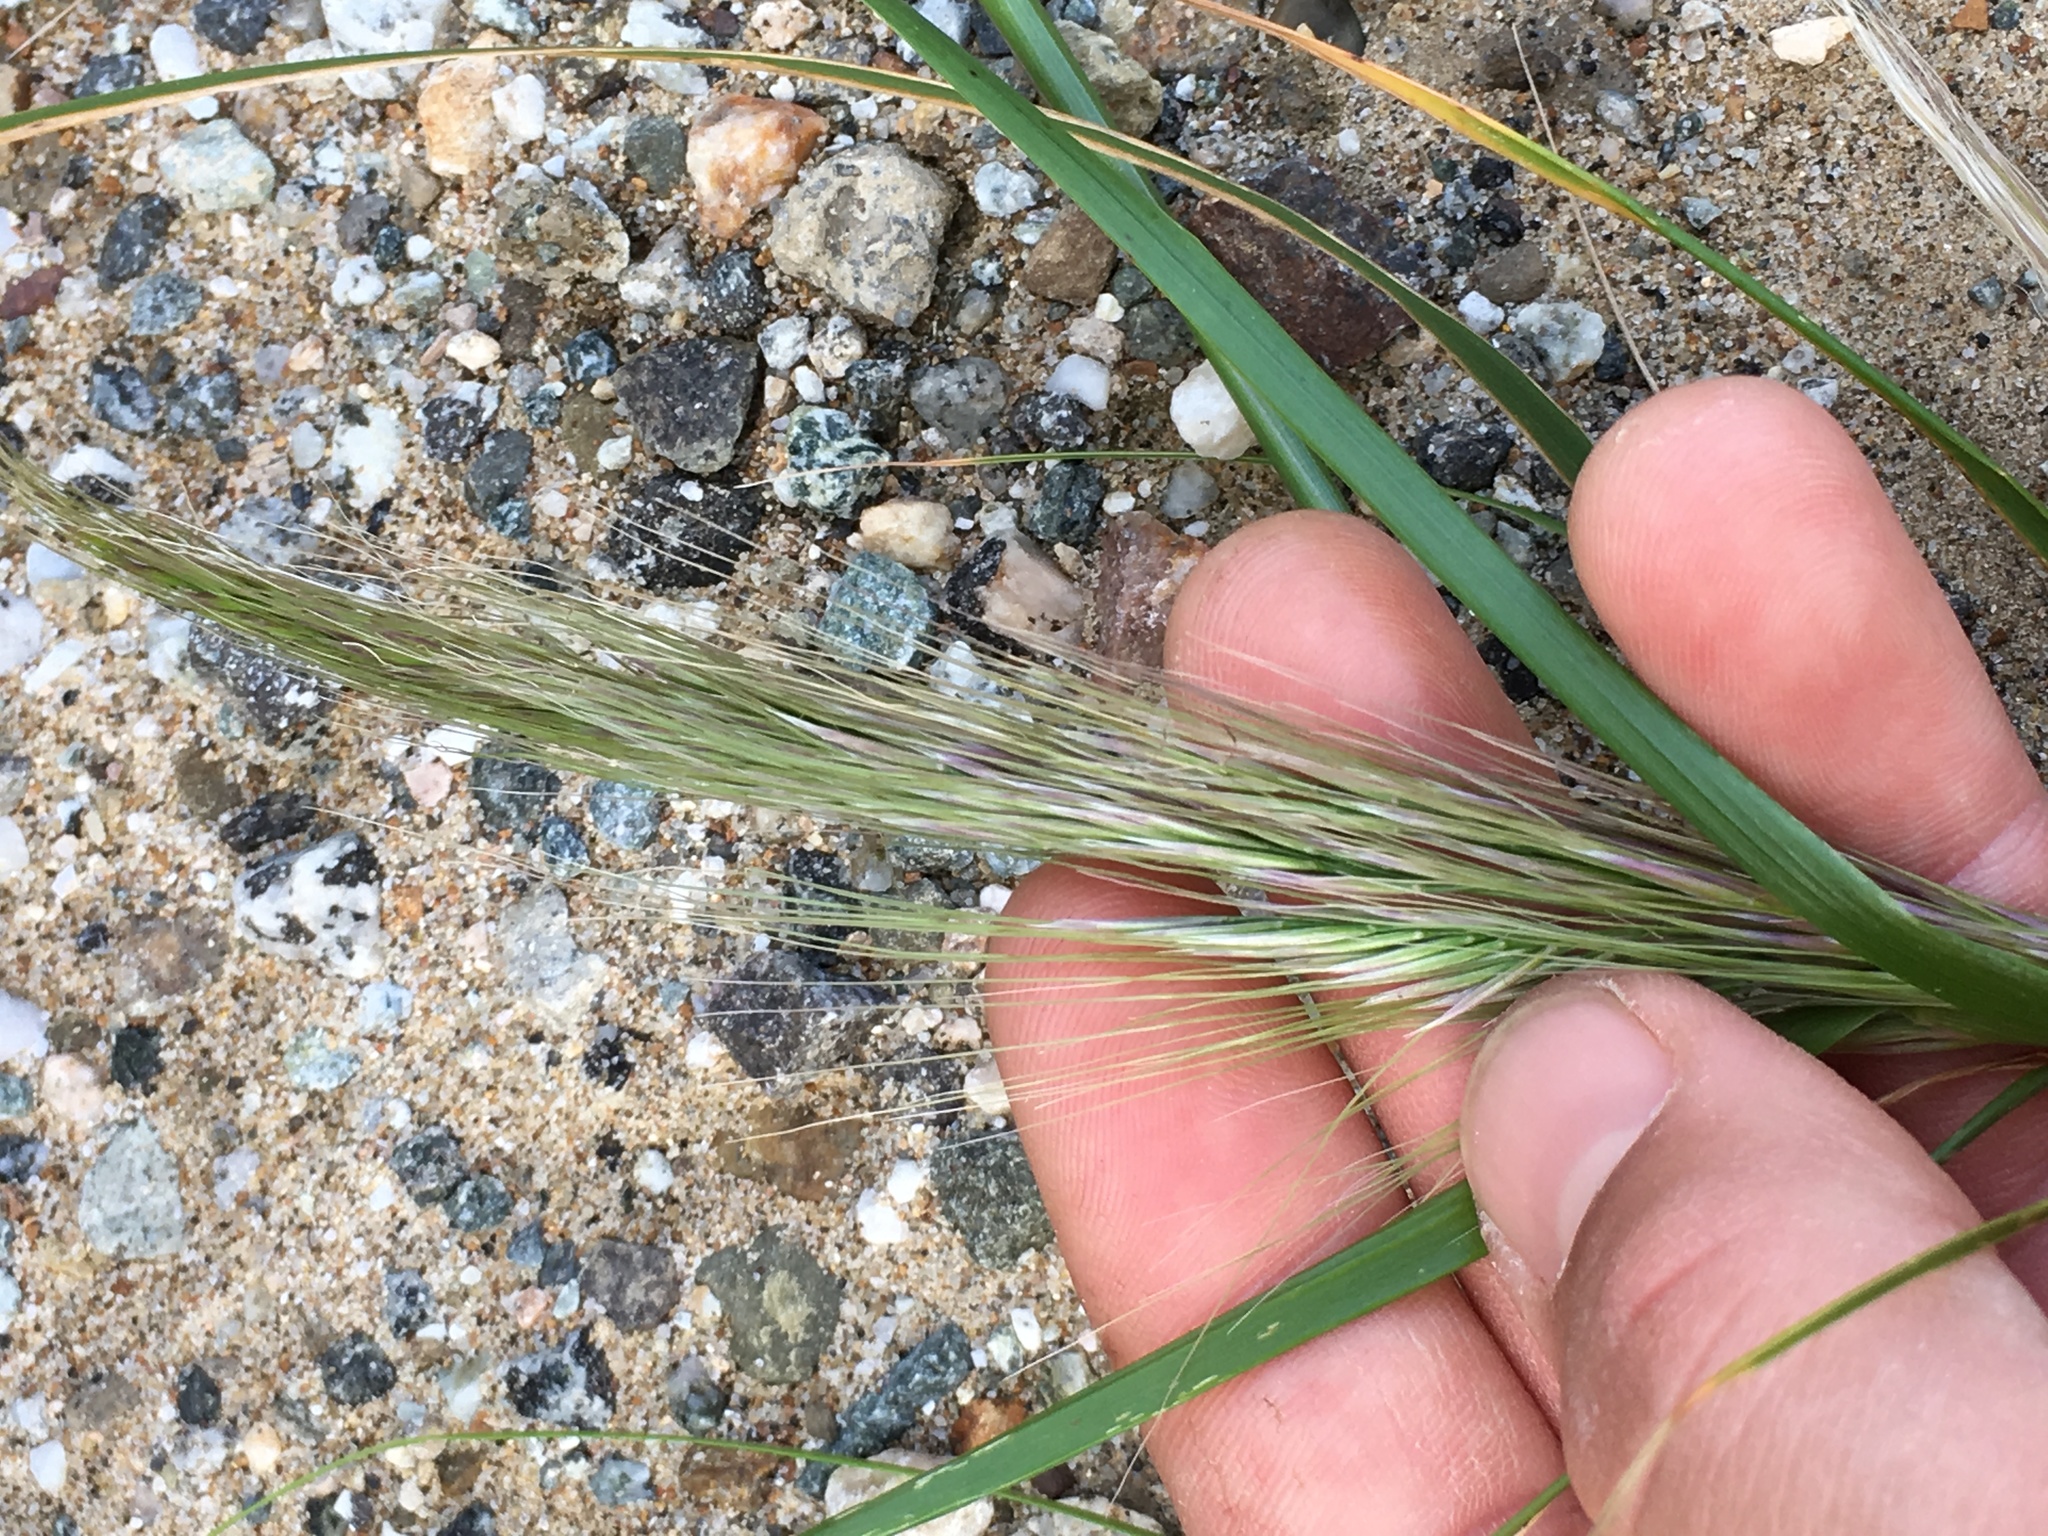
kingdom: Plantae
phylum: Tracheophyta
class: Liliopsida
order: Poales
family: Poaceae
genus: Thorneochloa
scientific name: Thorneochloa diegoensis
